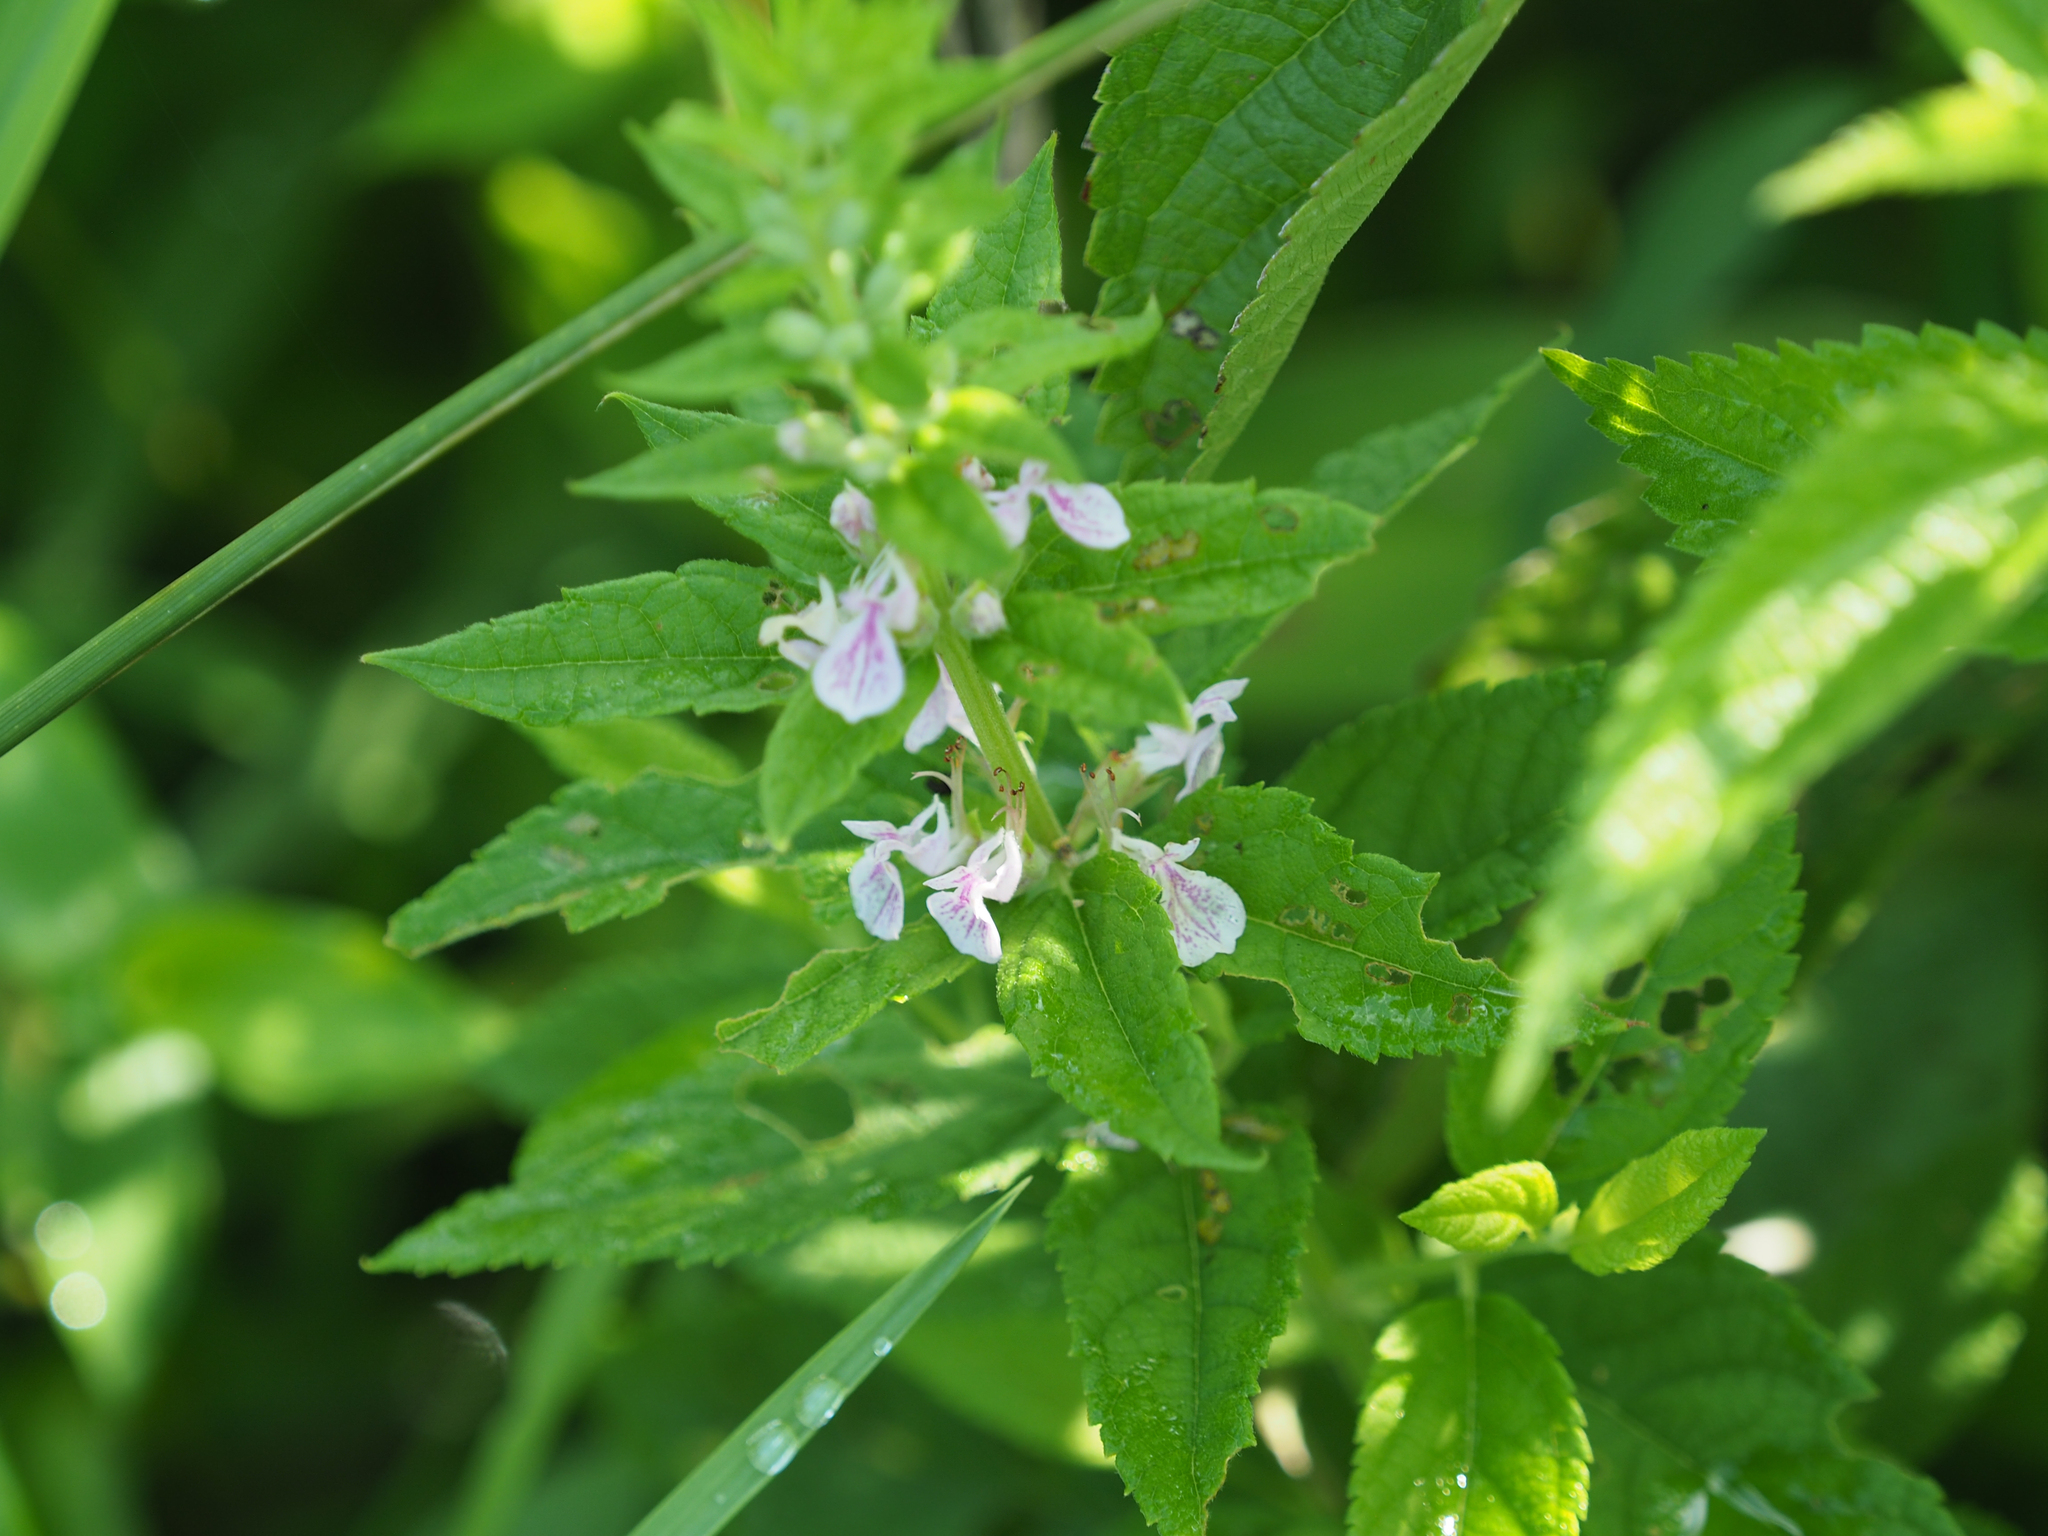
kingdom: Plantae
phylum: Tracheophyta
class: Magnoliopsida
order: Lamiales
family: Lamiaceae
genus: Teucrium
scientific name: Teucrium canadense
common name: American germander
